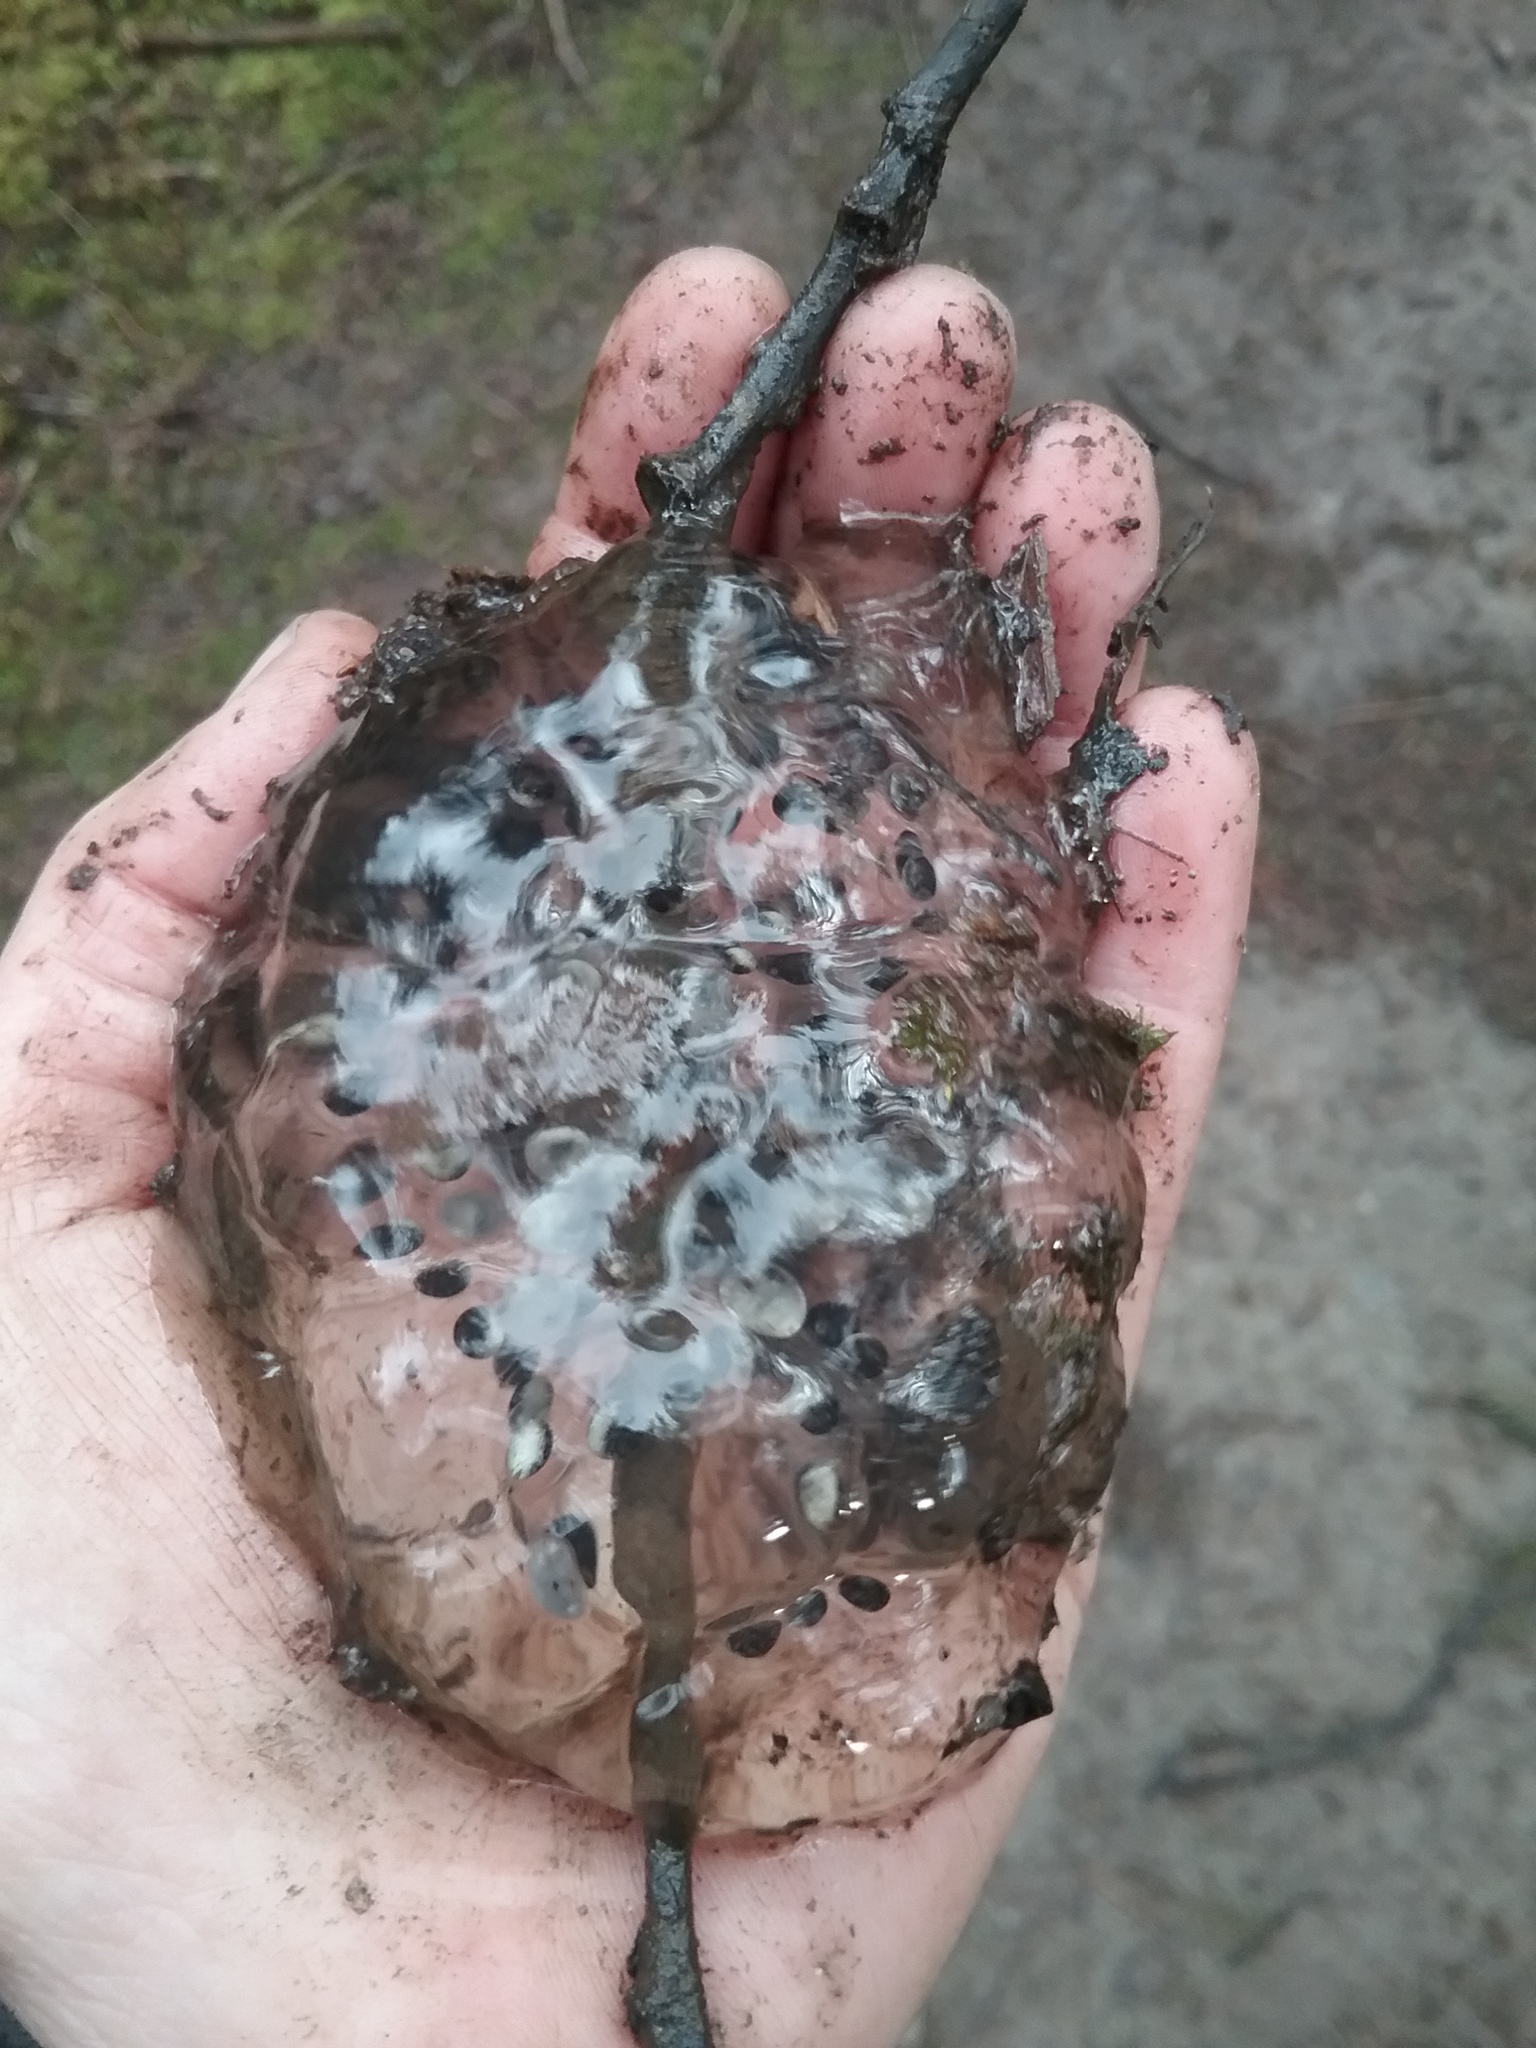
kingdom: Animalia
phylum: Chordata
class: Amphibia
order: Caudata
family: Ambystomatidae
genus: Ambystoma
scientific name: Ambystoma gracile
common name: Northwestern salamander
